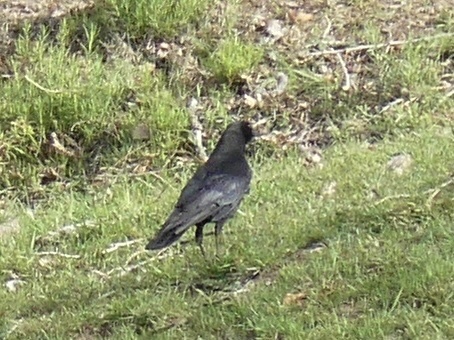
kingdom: Animalia
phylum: Chordata
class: Aves
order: Passeriformes
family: Corvidae
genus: Corvus
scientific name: Corvus corone
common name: Carrion crow
